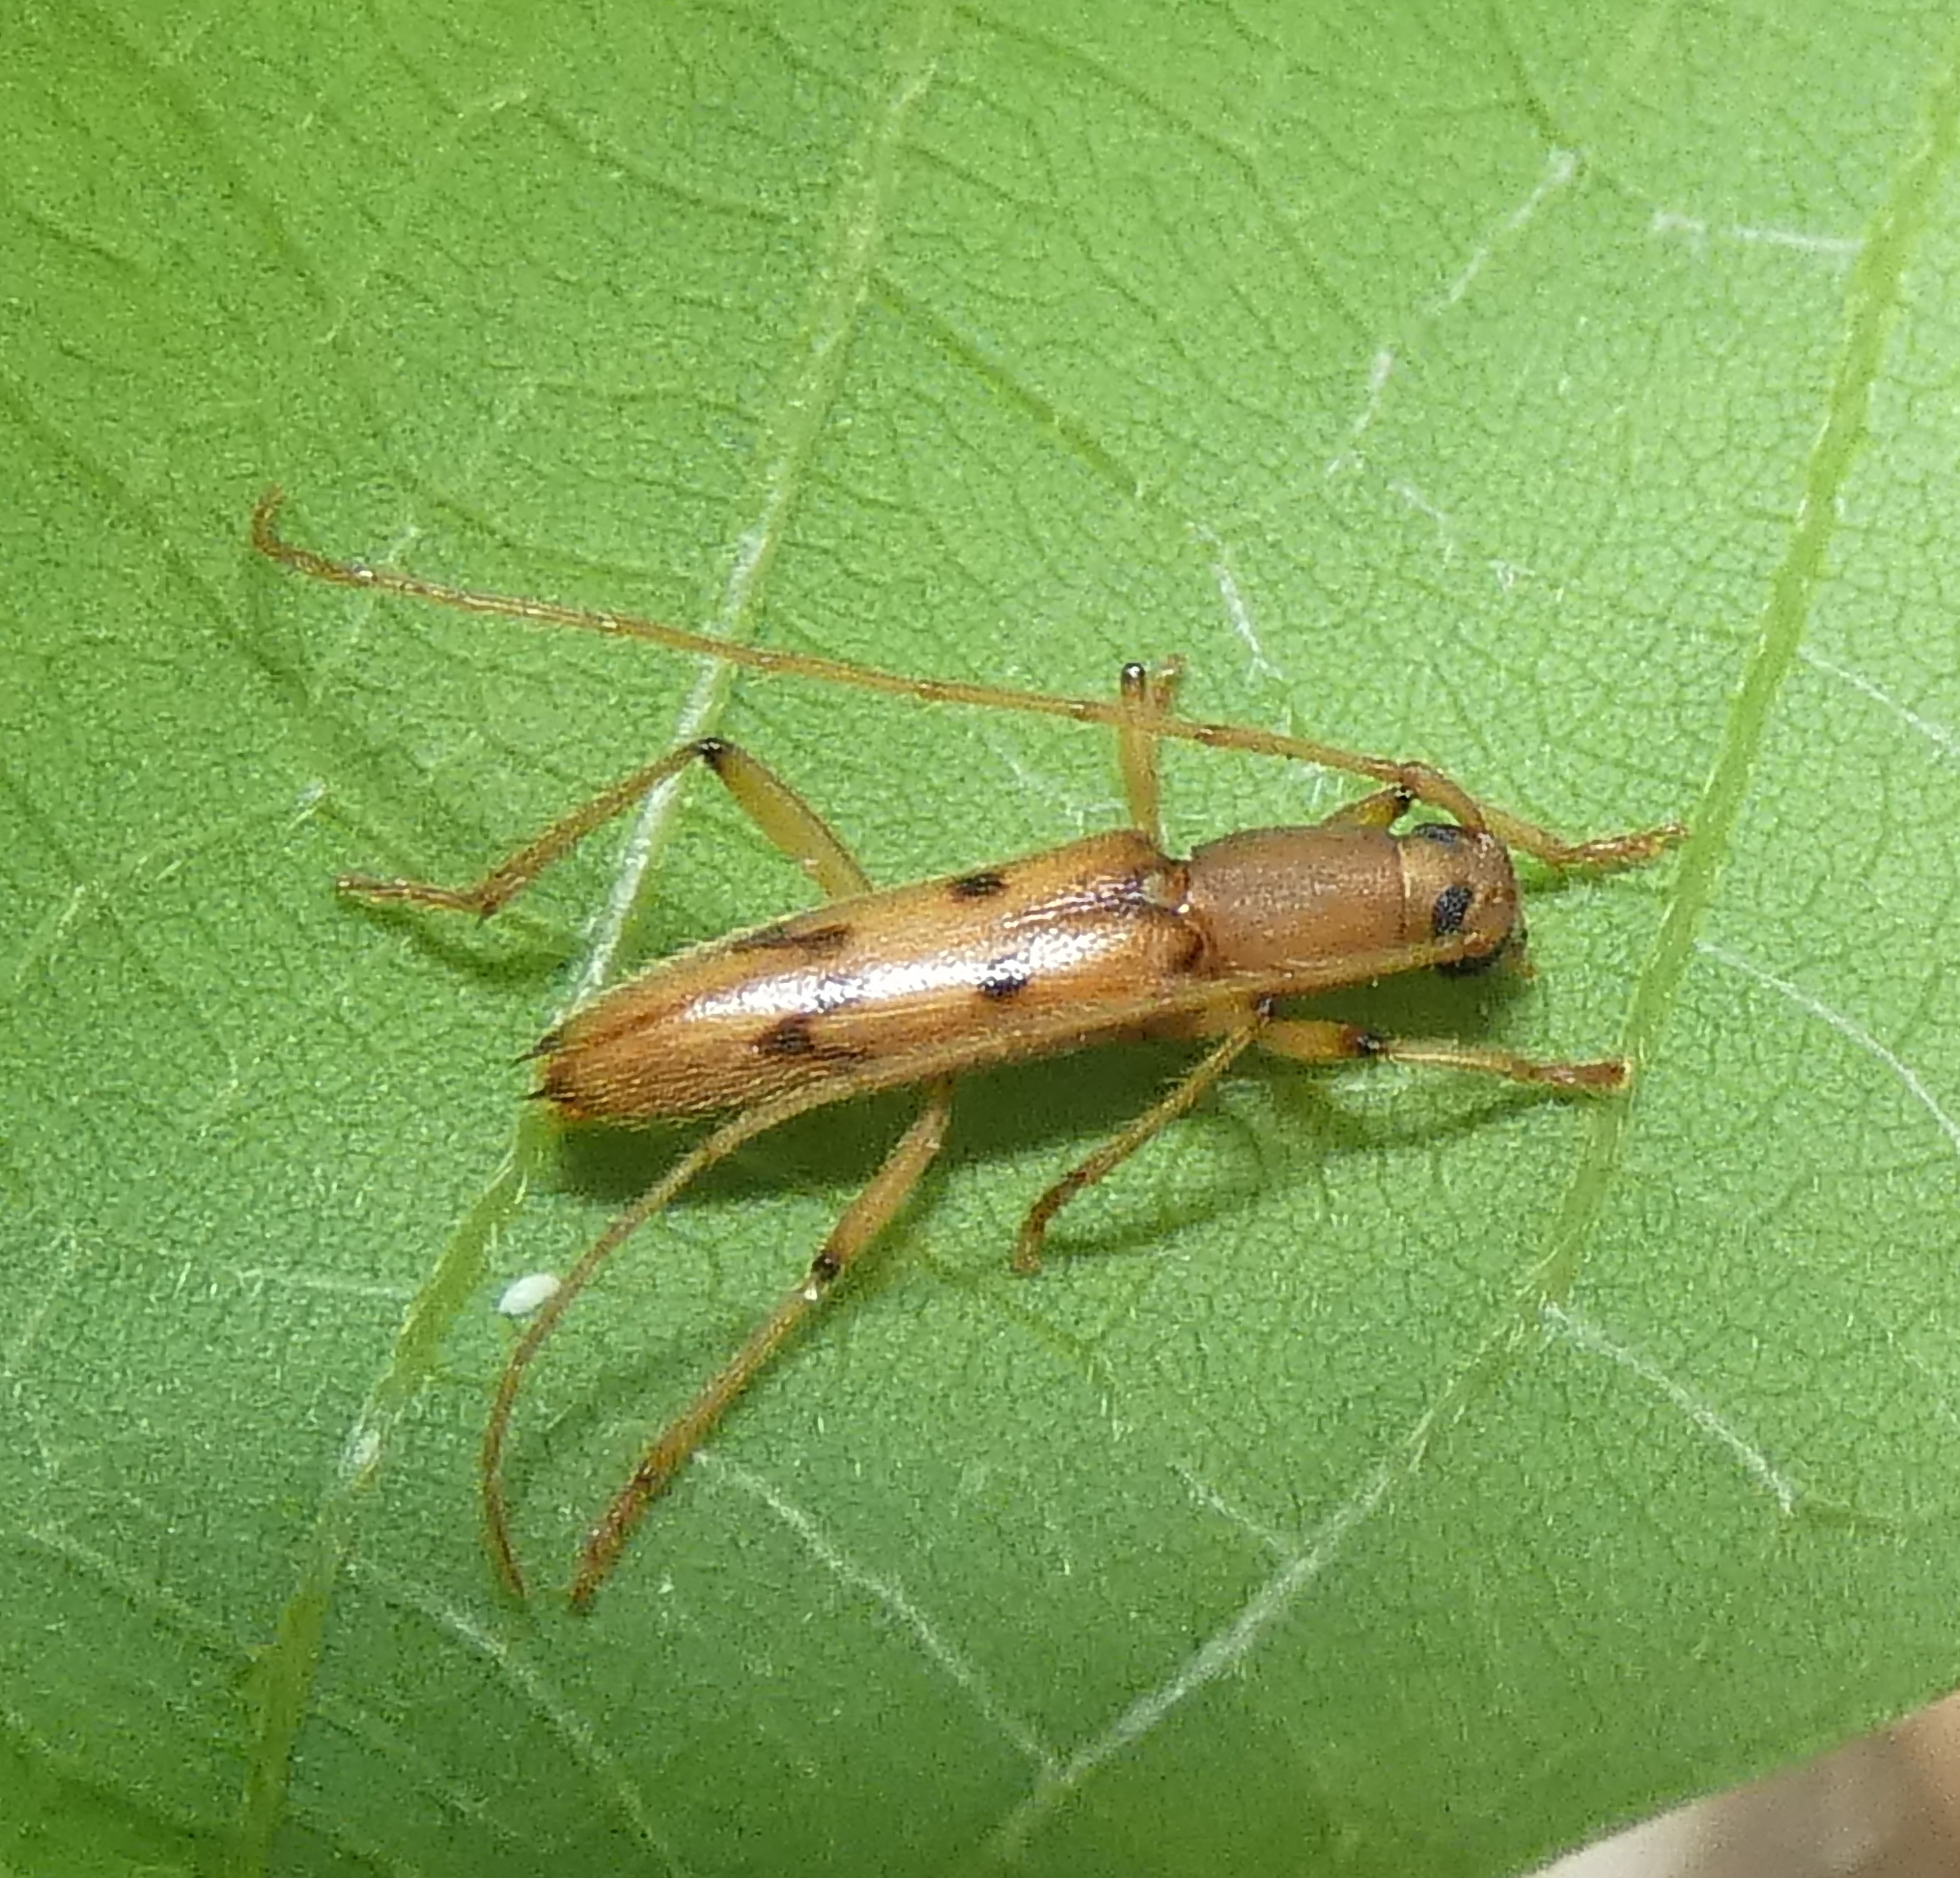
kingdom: Animalia
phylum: Arthropoda
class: Insecta
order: Coleoptera
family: Cerambycidae
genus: Achryson
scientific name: Achryson surinamum
